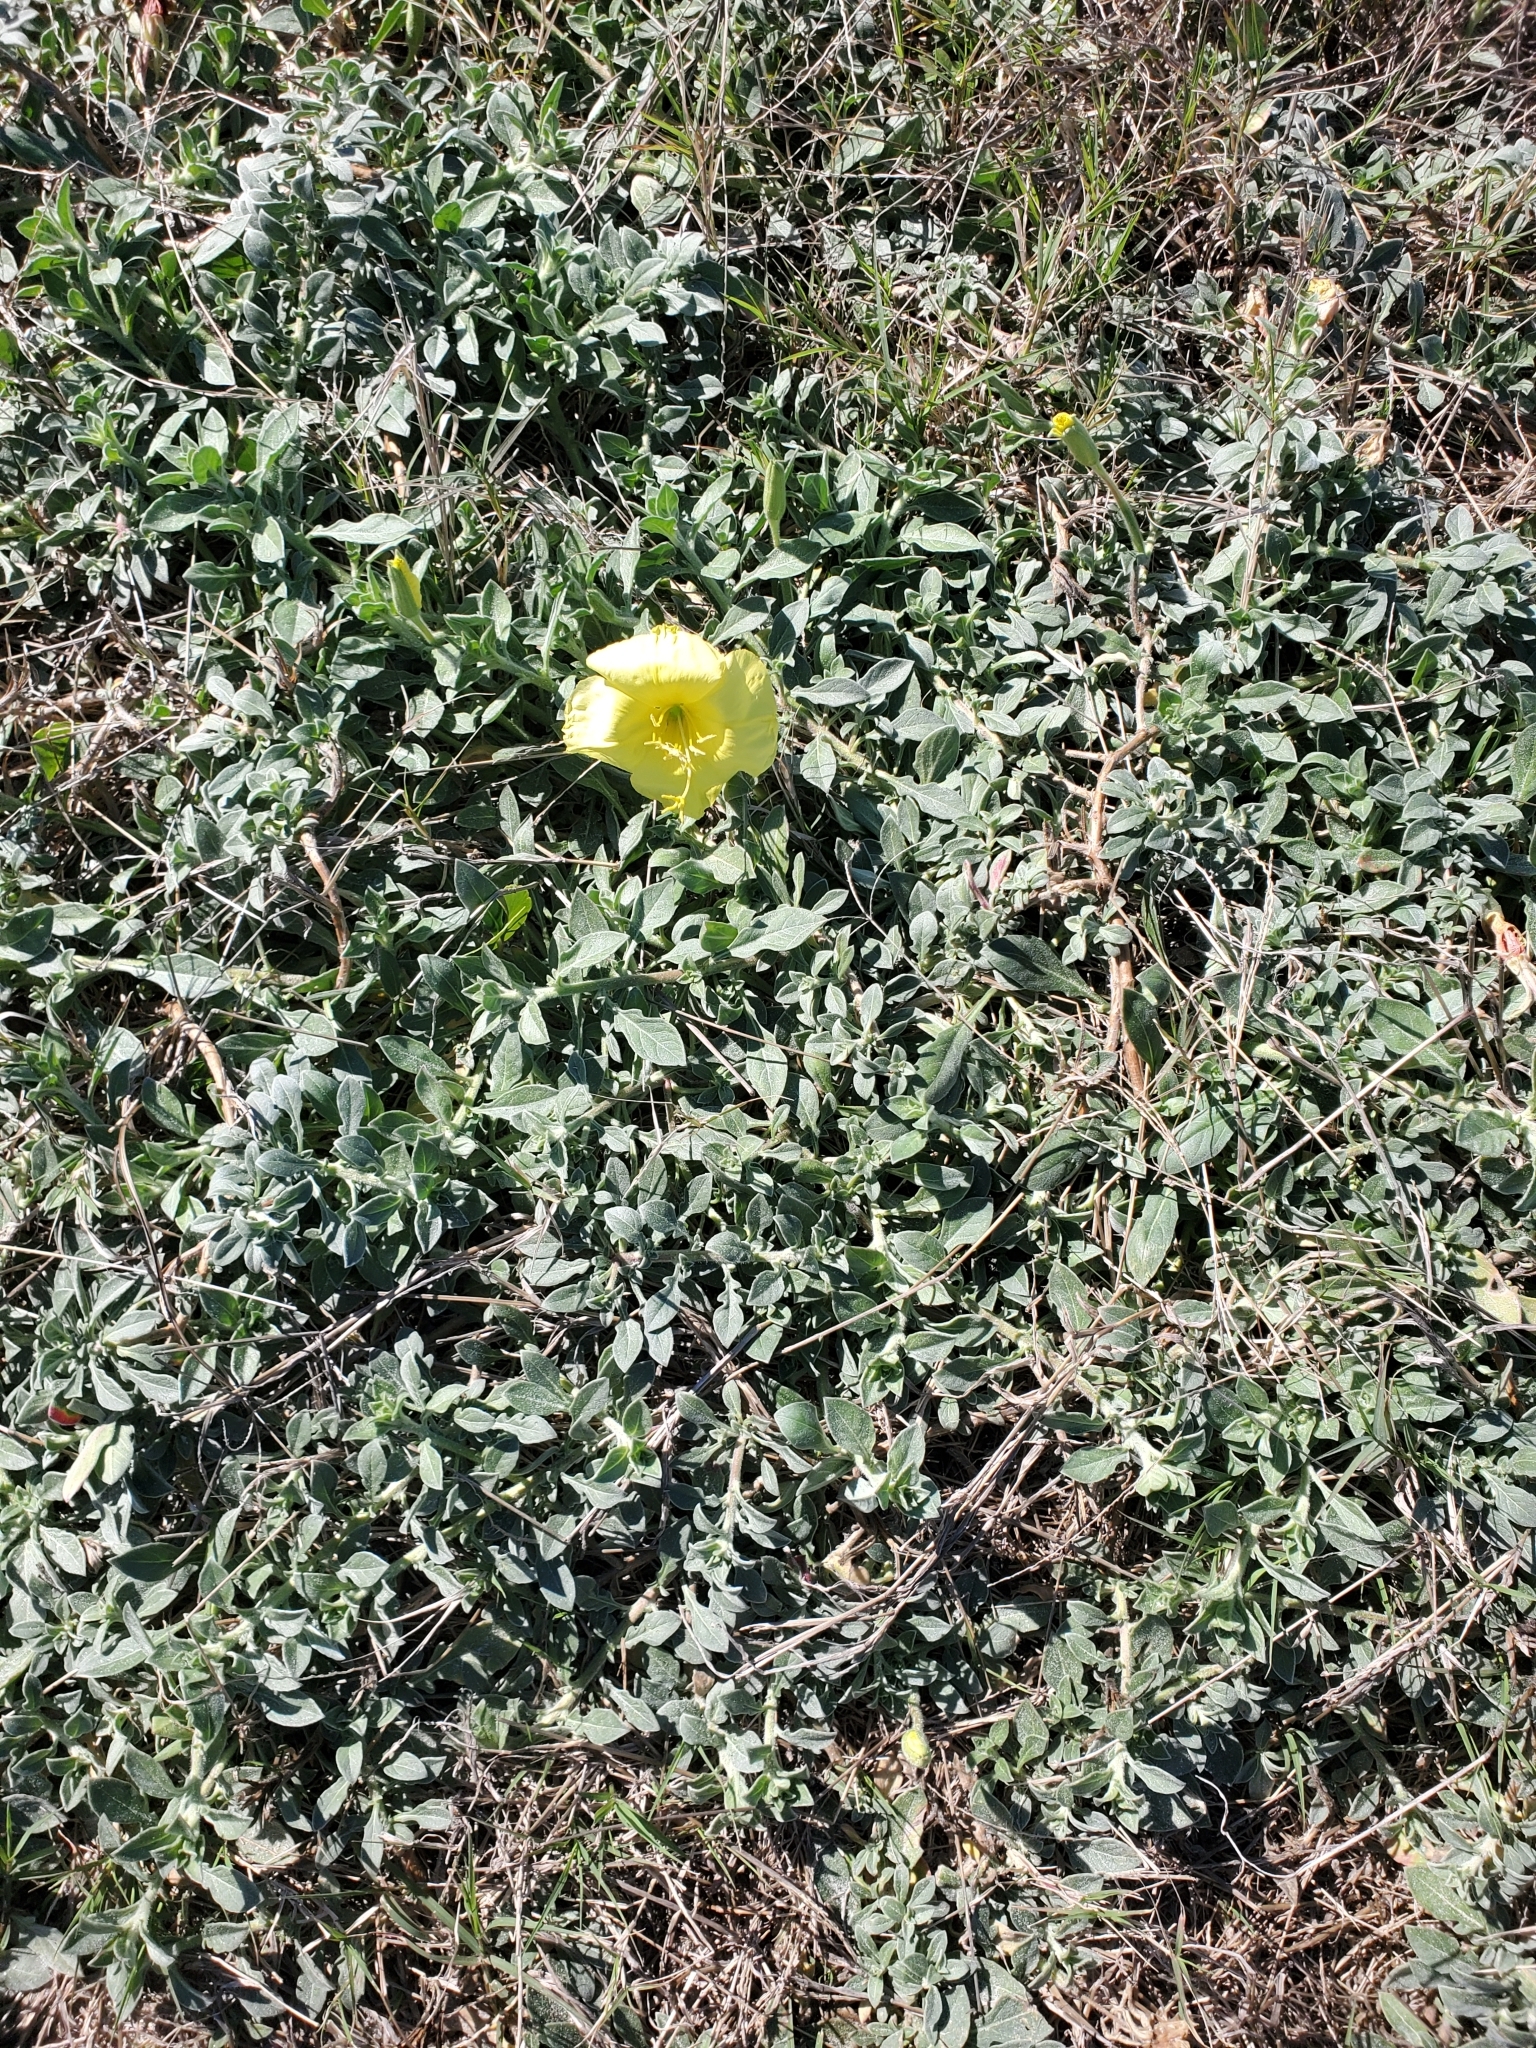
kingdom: Plantae
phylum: Tracheophyta
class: Magnoliopsida
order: Myrtales
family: Onagraceae
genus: Oenothera
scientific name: Oenothera drummondii
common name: Beach evening-primrose
